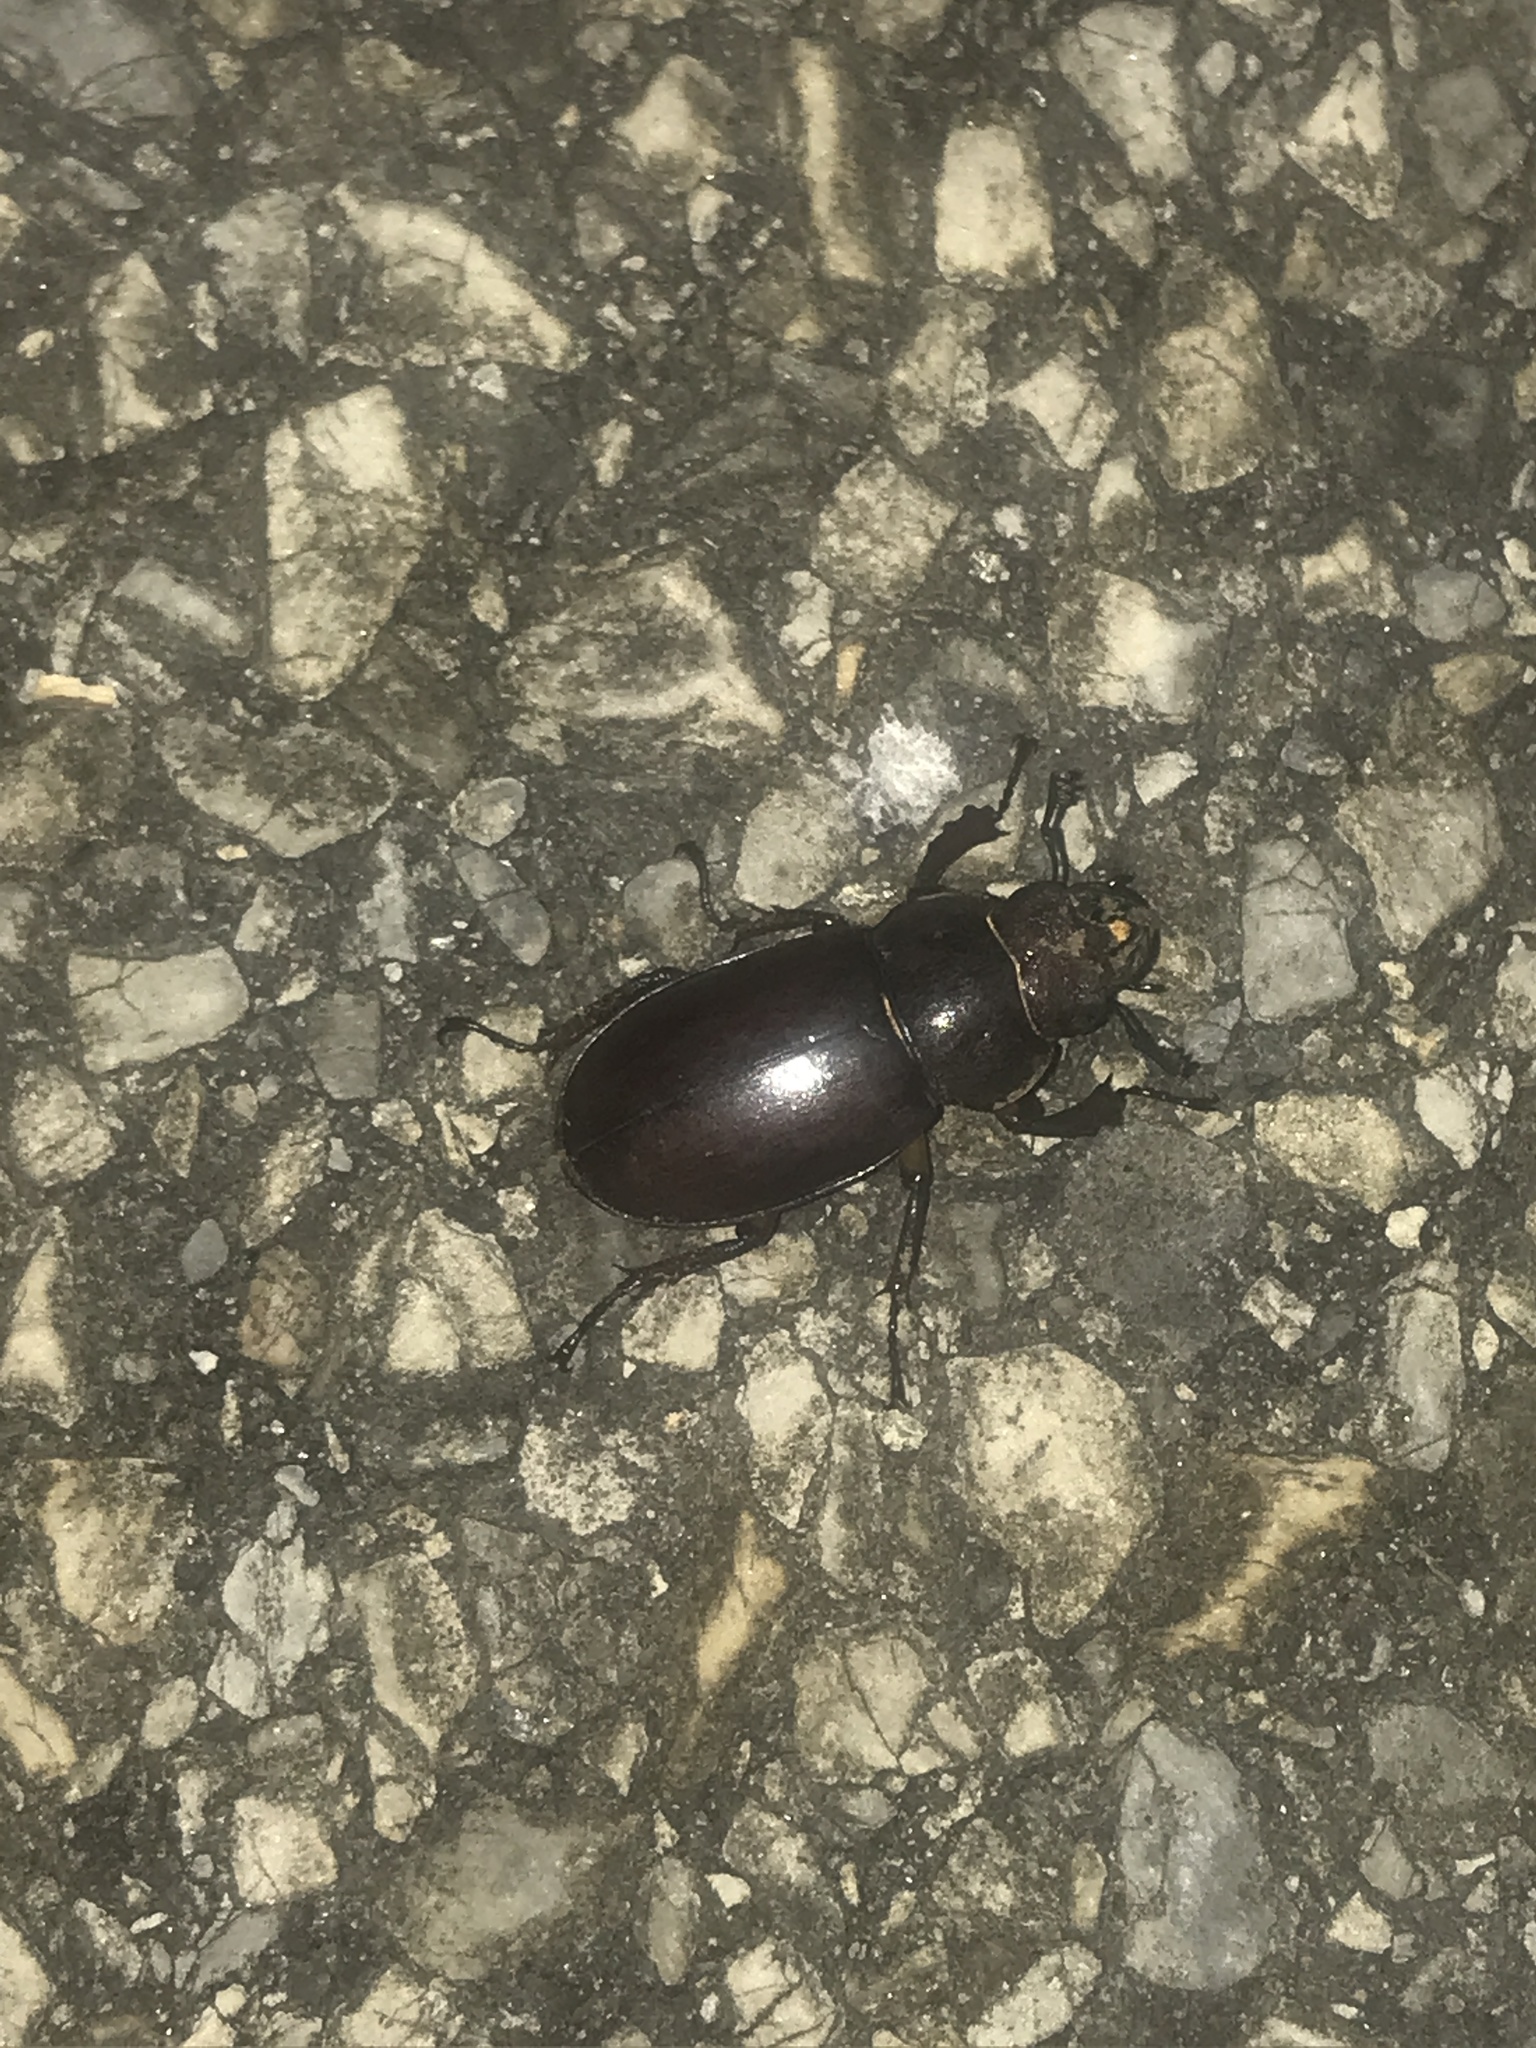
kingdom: Animalia
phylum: Arthropoda
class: Insecta
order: Coleoptera
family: Lucanidae
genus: Lucanus
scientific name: Lucanus capreolus
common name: Stag beetle
